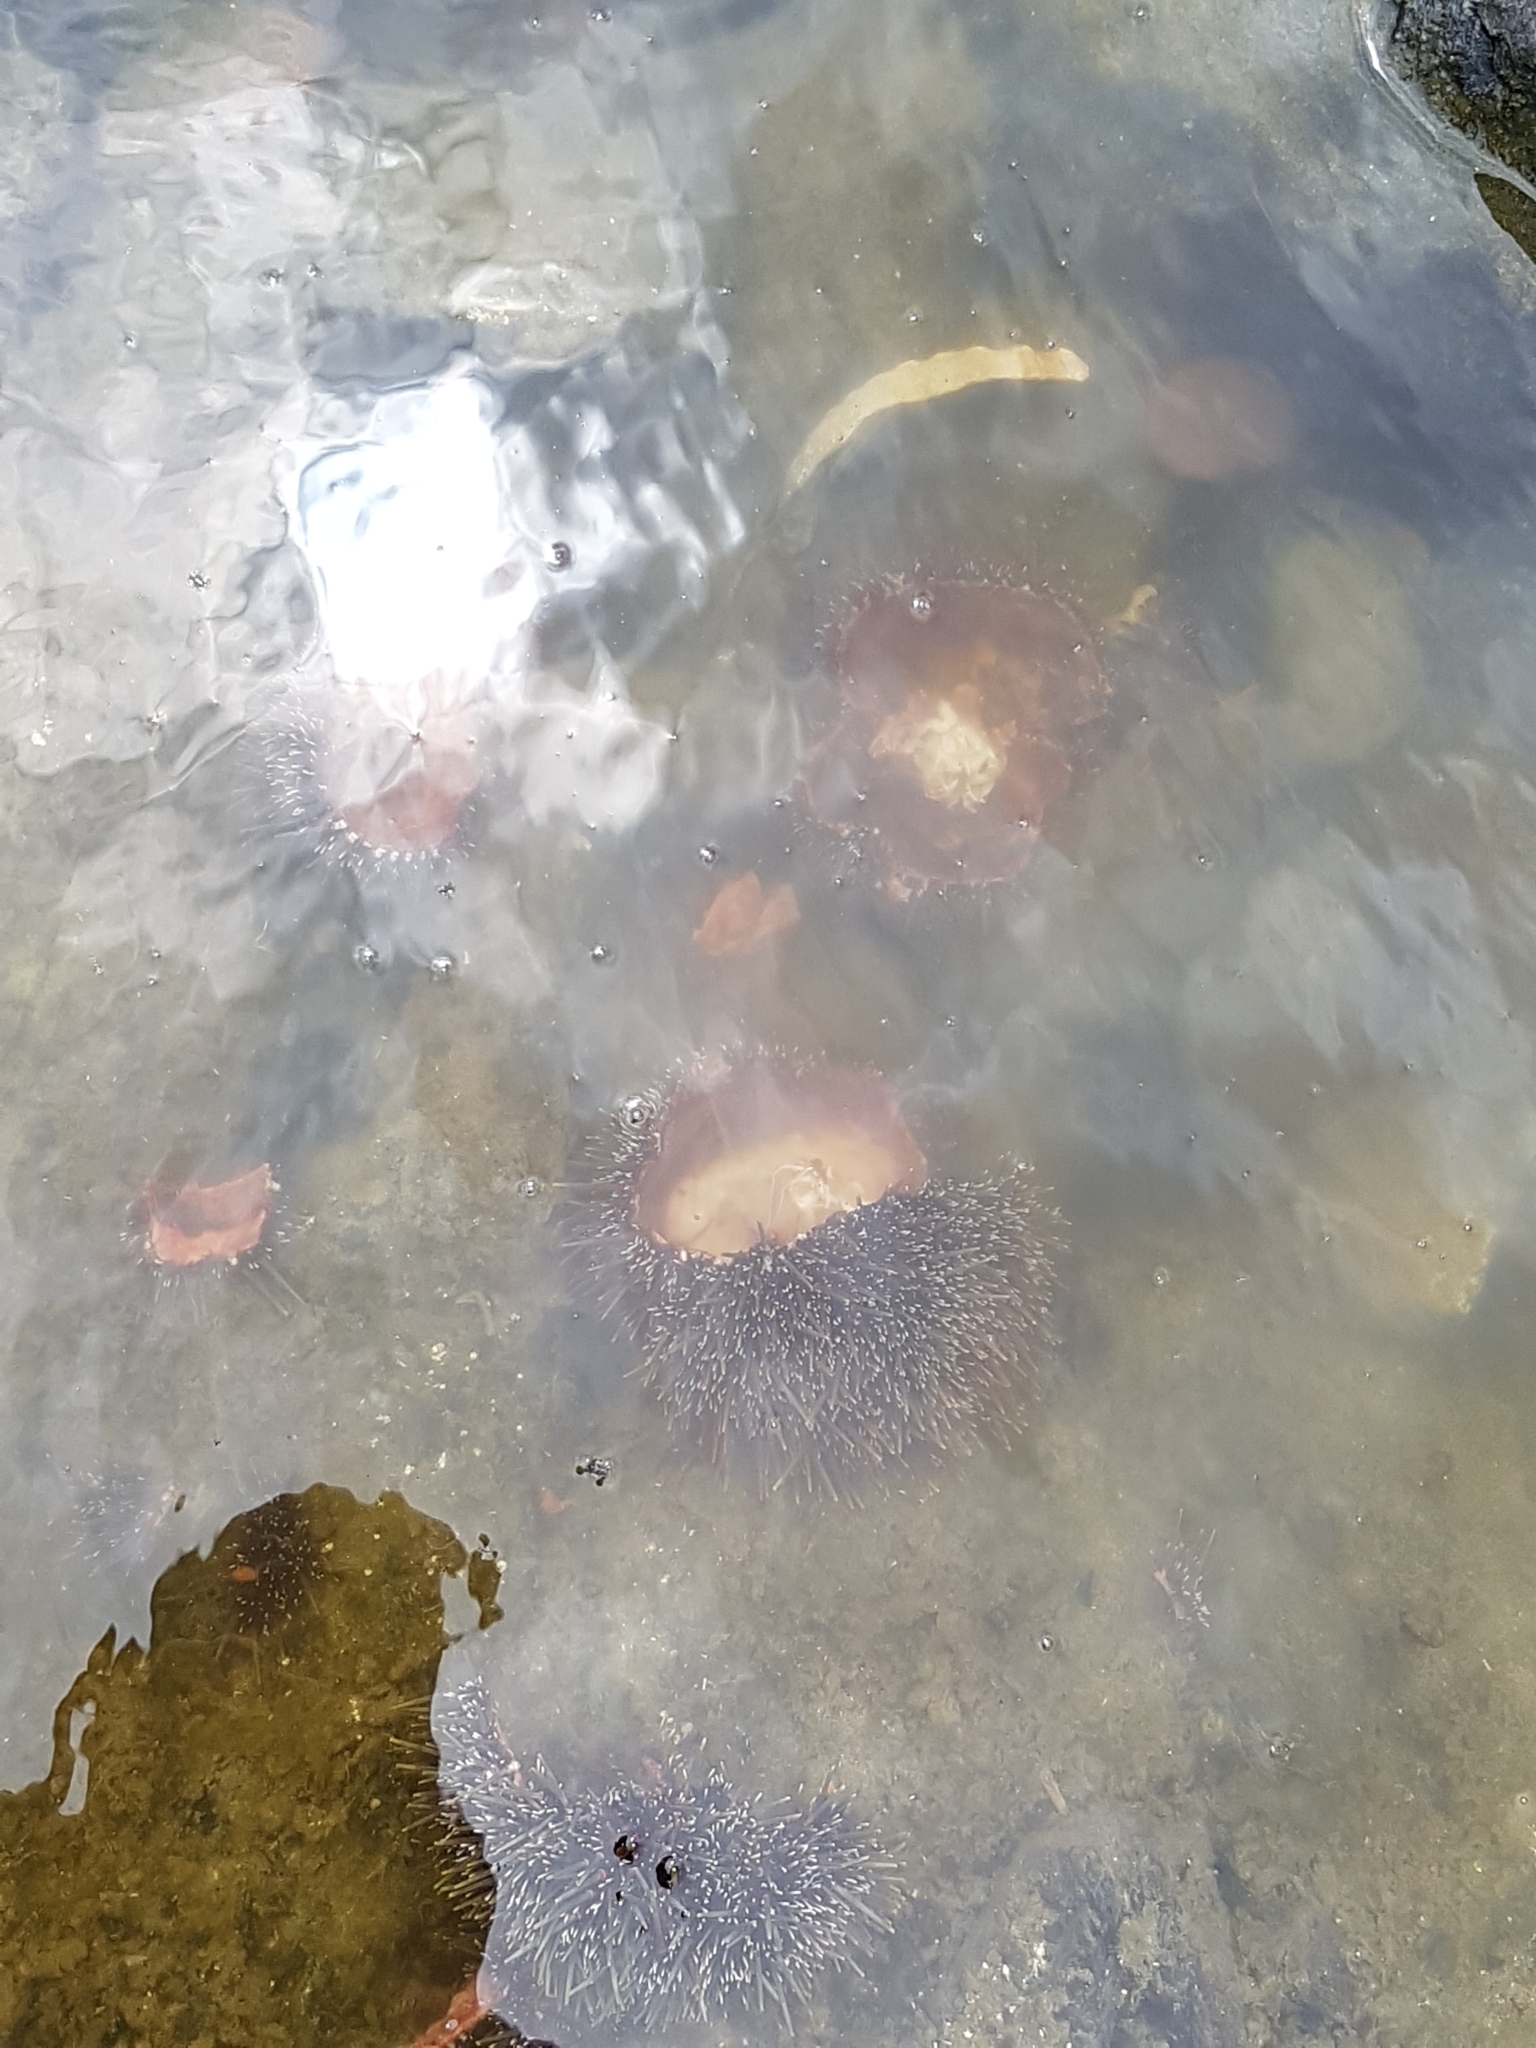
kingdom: Animalia
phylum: Echinodermata
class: Echinoidea
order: Camarodonta
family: Echinometridae
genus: Evechinus
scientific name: Evechinus chloroticus
